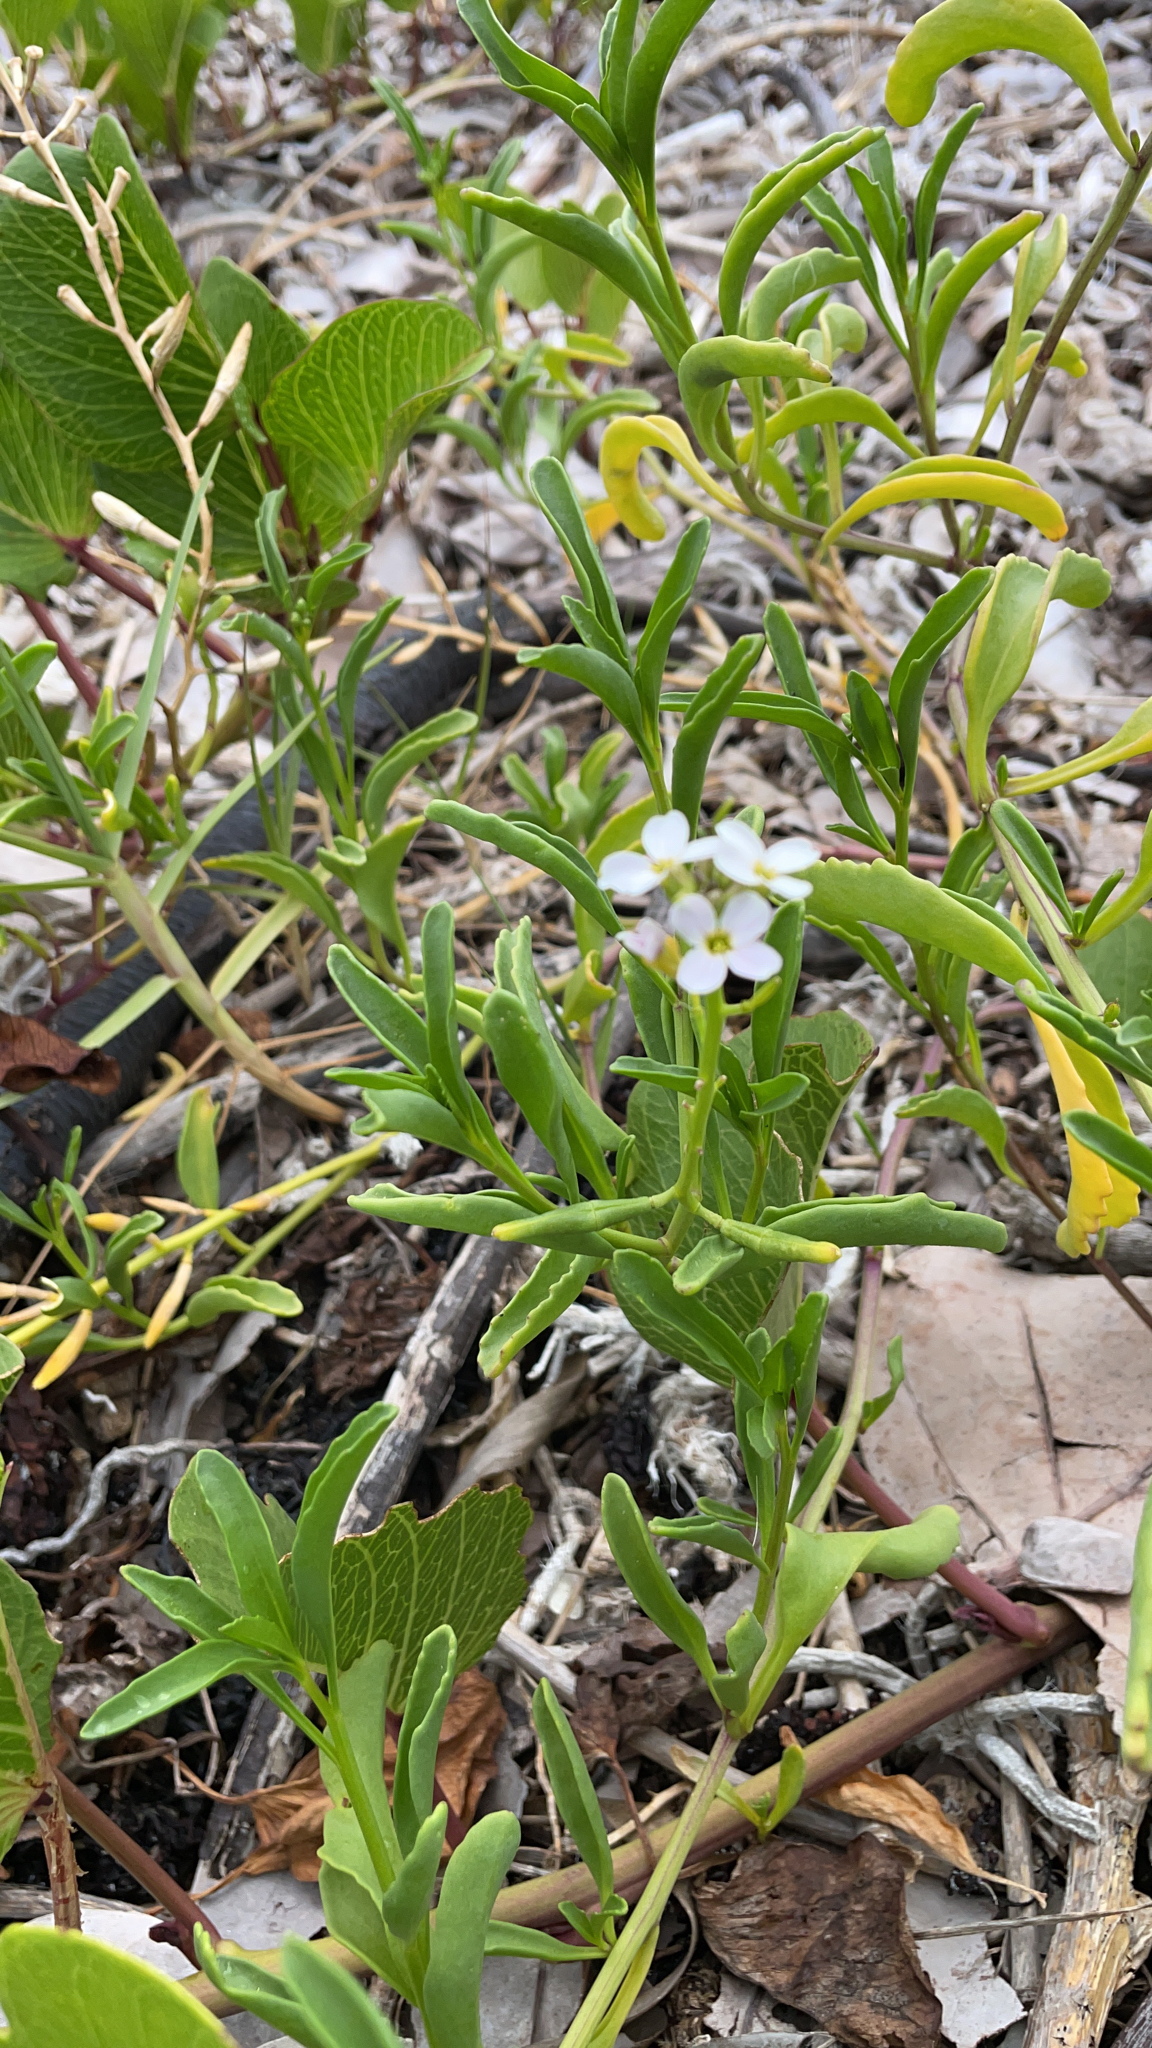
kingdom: Plantae
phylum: Tracheophyta
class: Magnoliopsida
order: Brassicales
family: Brassicaceae
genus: Cakile
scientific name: Cakile lanceolata
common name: Sea rocket
